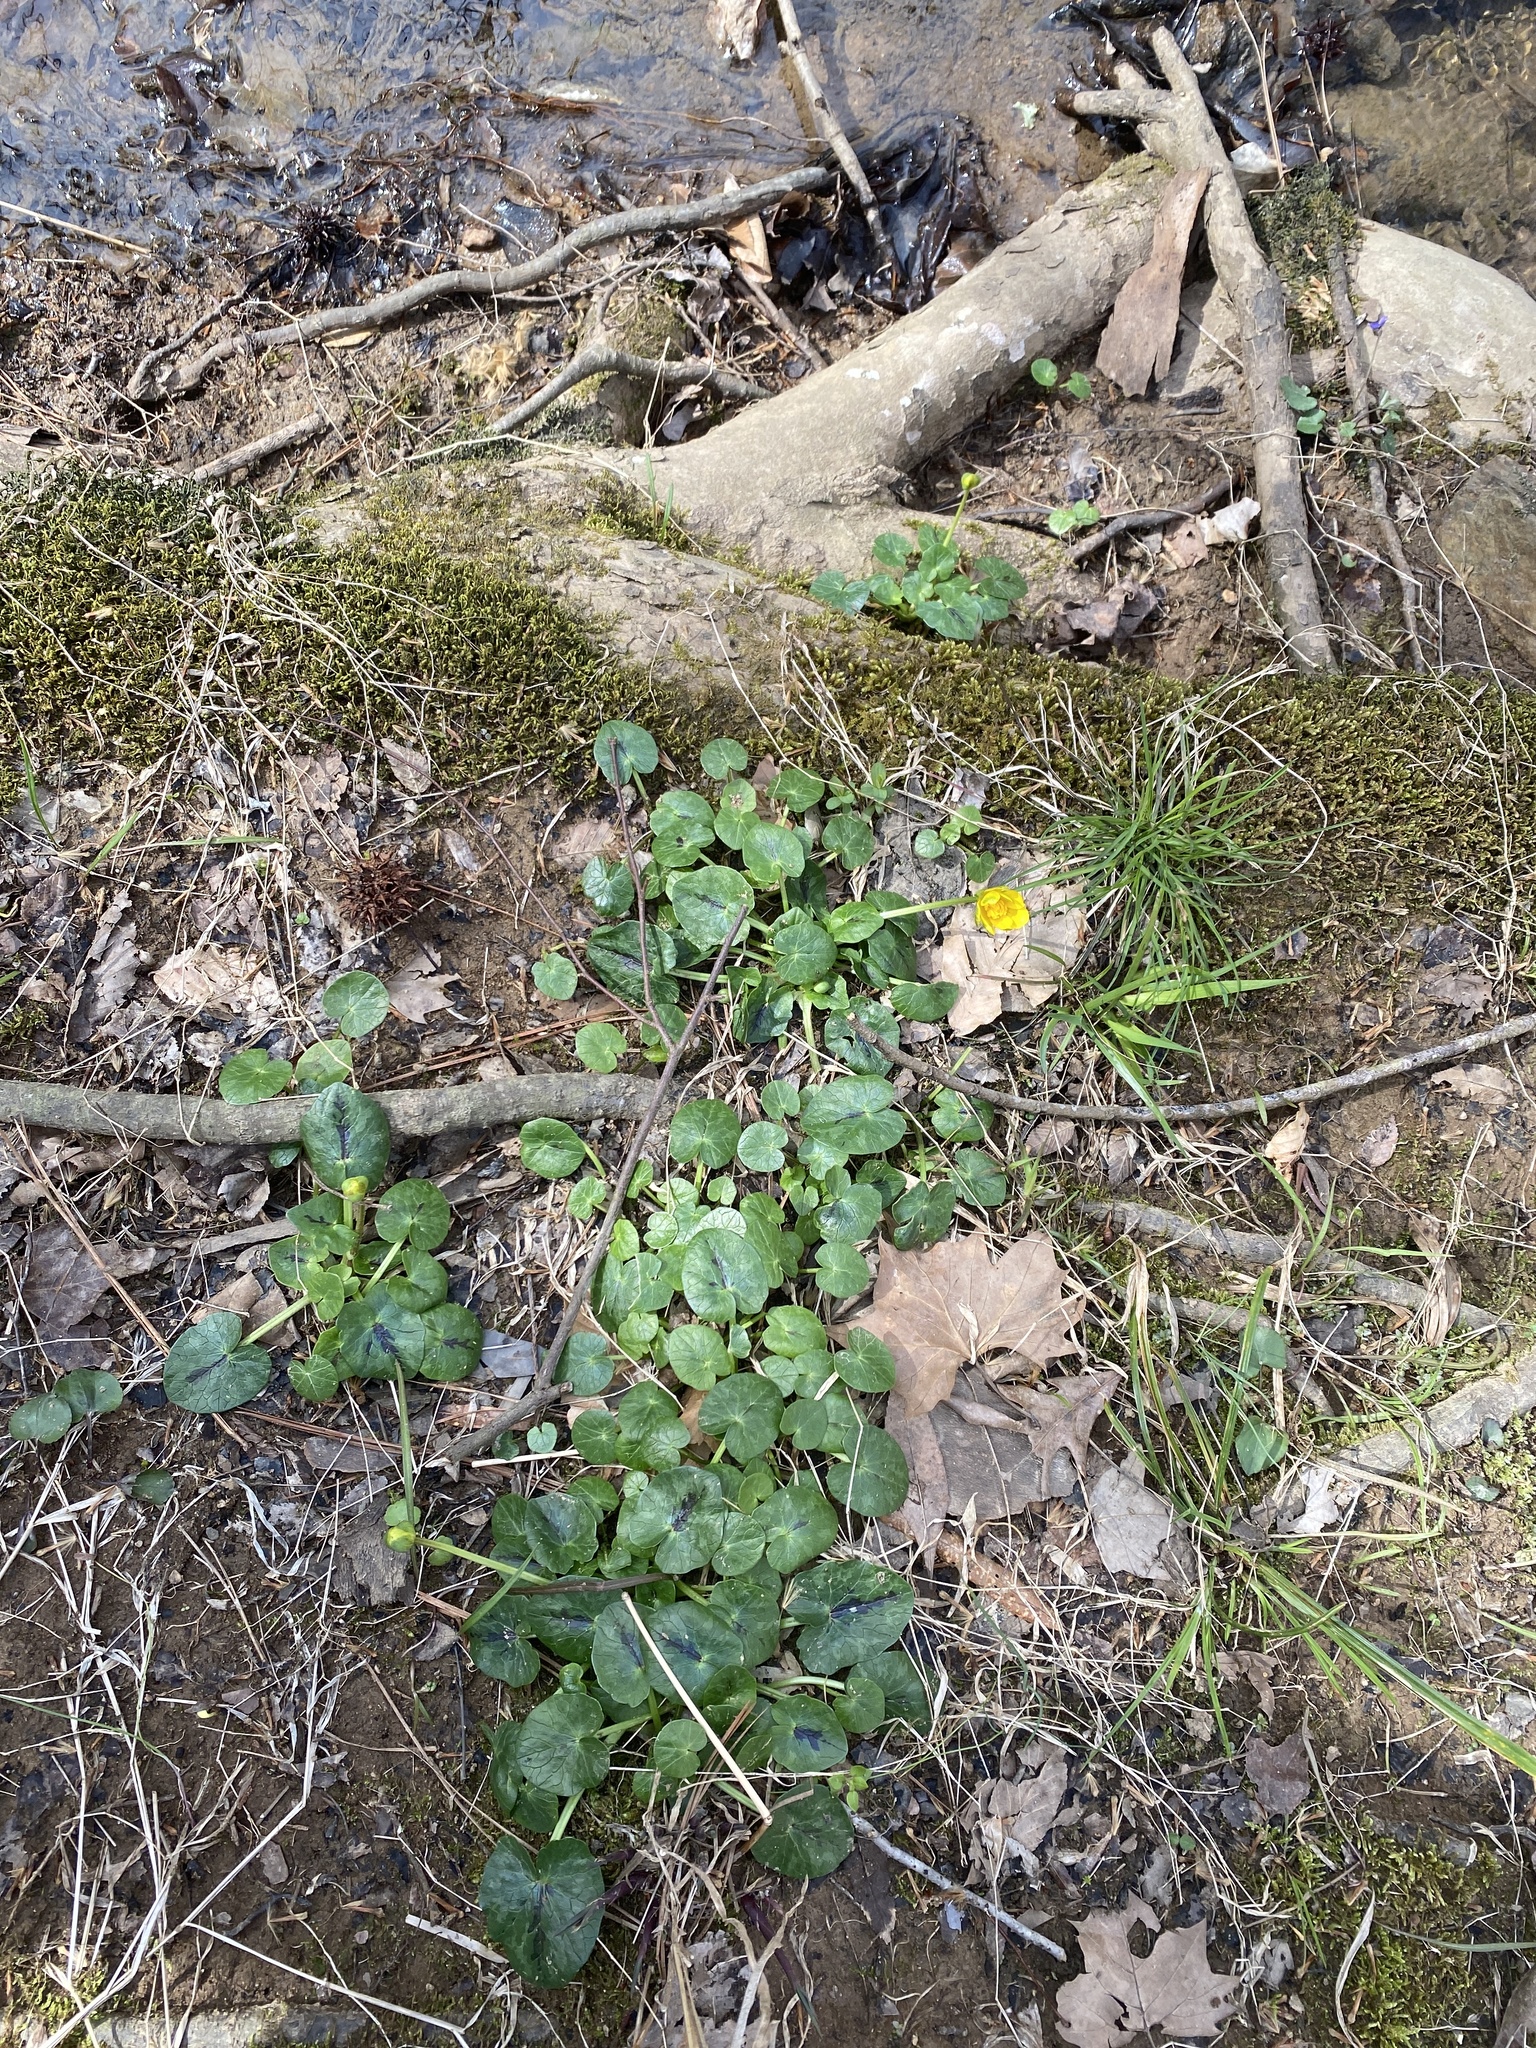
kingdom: Plantae
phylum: Tracheophyta
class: Magnoliopsida
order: Ranunculales
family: Ranunculaceae
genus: Ficaria
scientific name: Ficaria verna
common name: Lesser celandine
